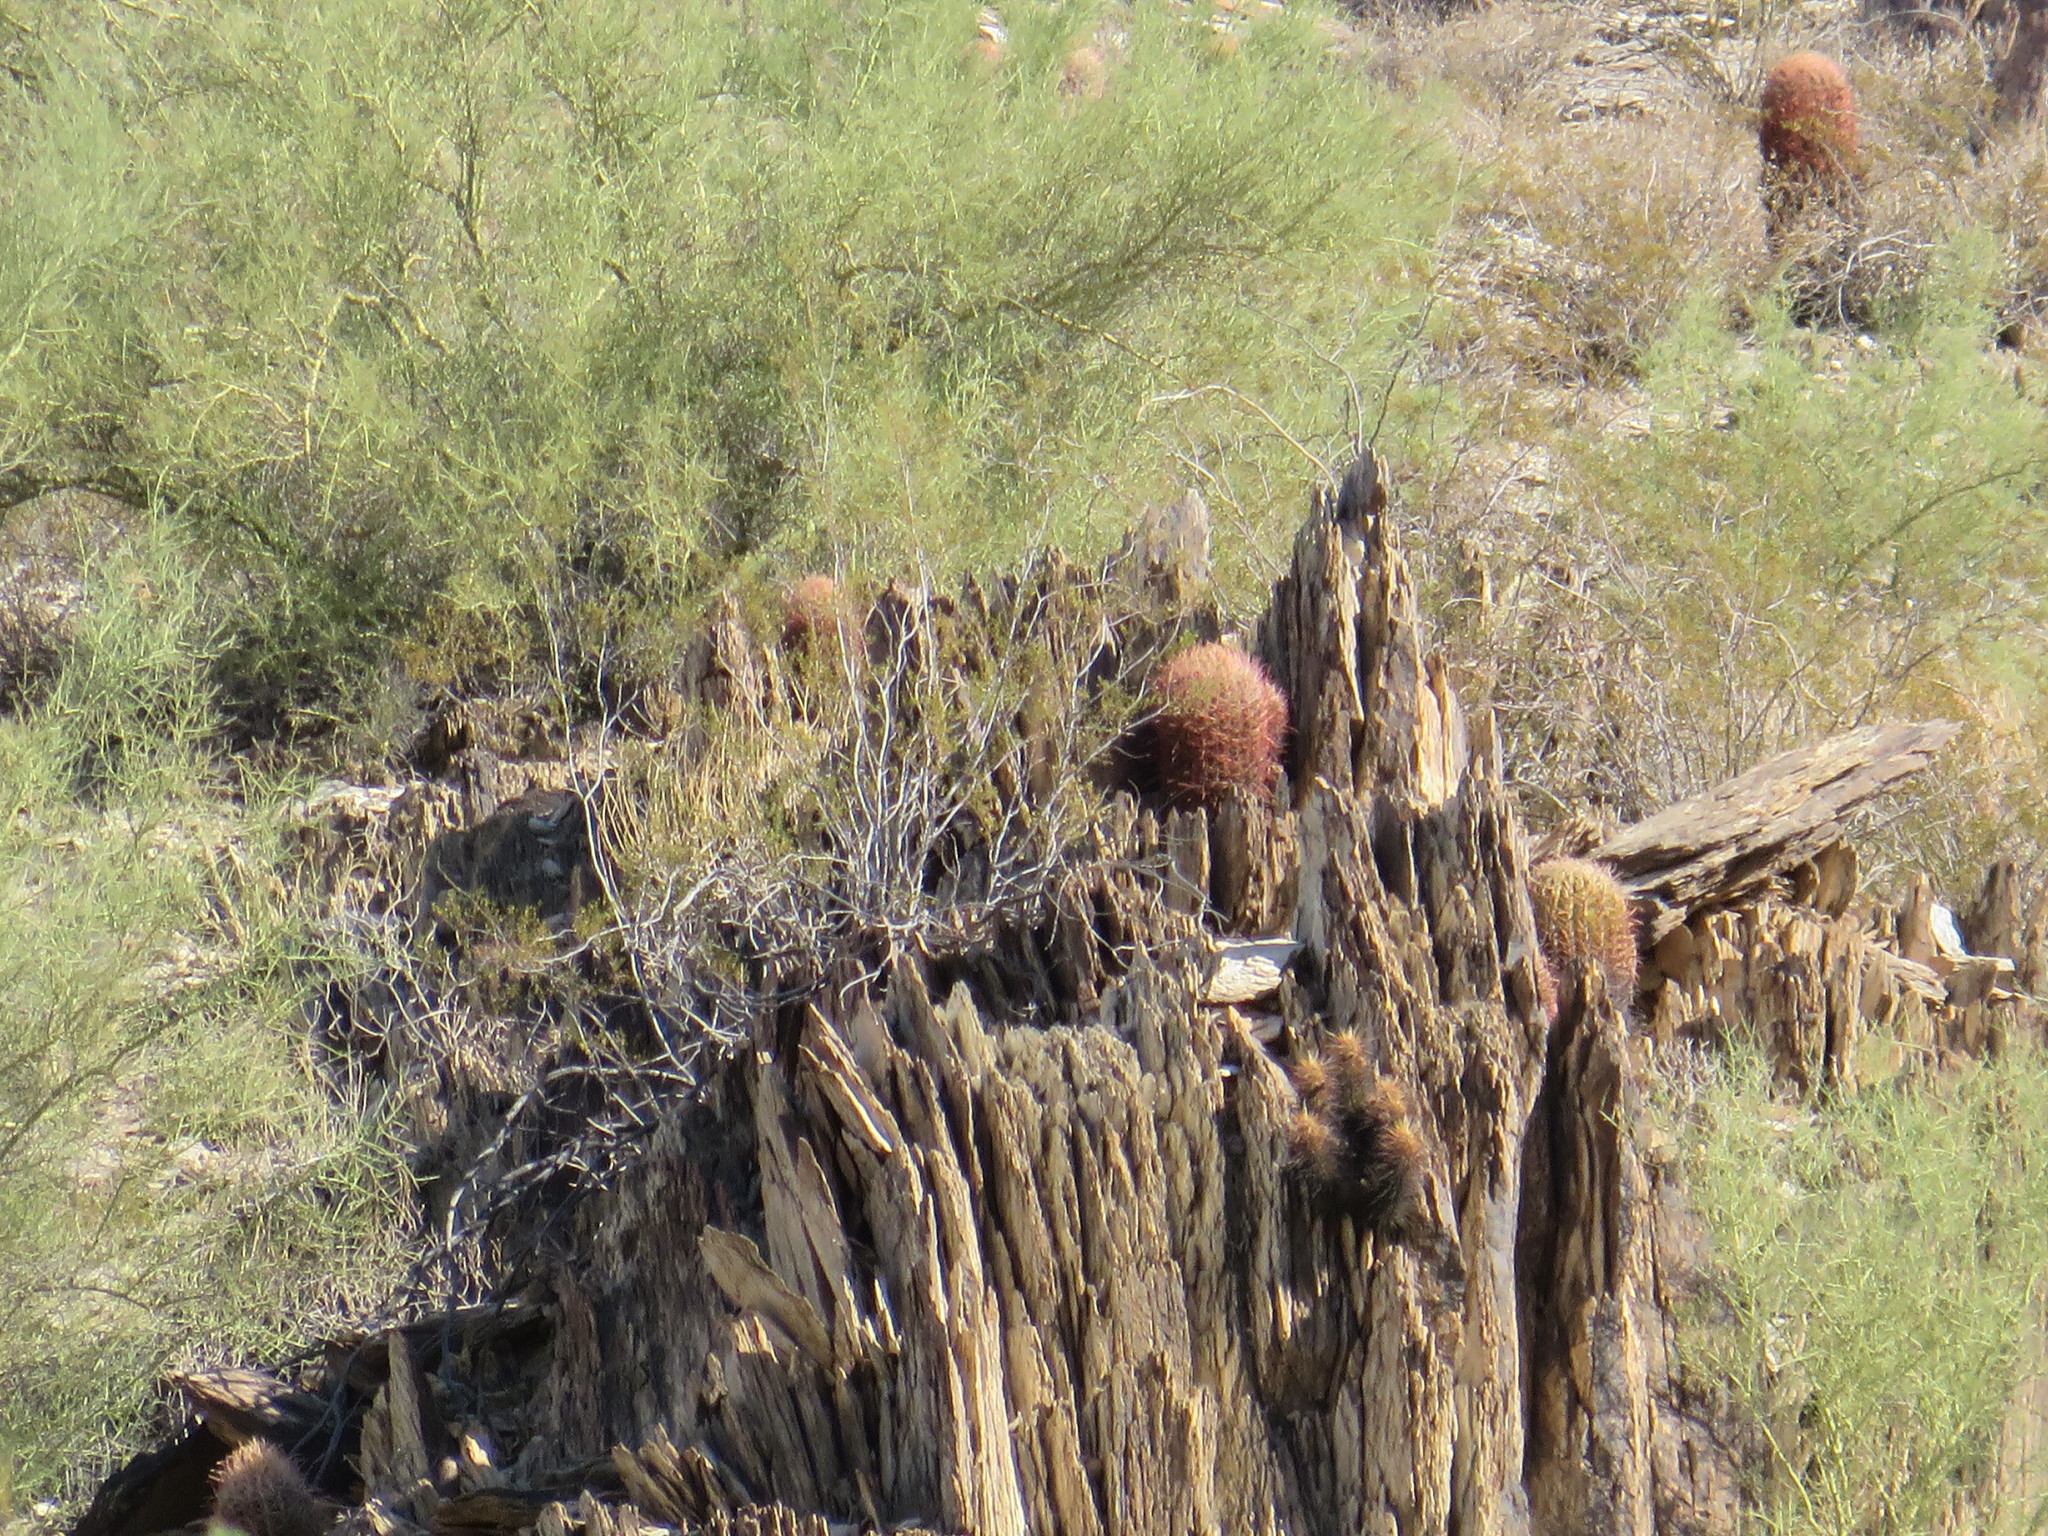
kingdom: Plantae
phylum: Tracheophyta
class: Magnoliopsida
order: Caryophyllales
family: Cactaceae
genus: Ferocactus
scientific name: Ferocactus cylindraceus
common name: California barrel cactus
